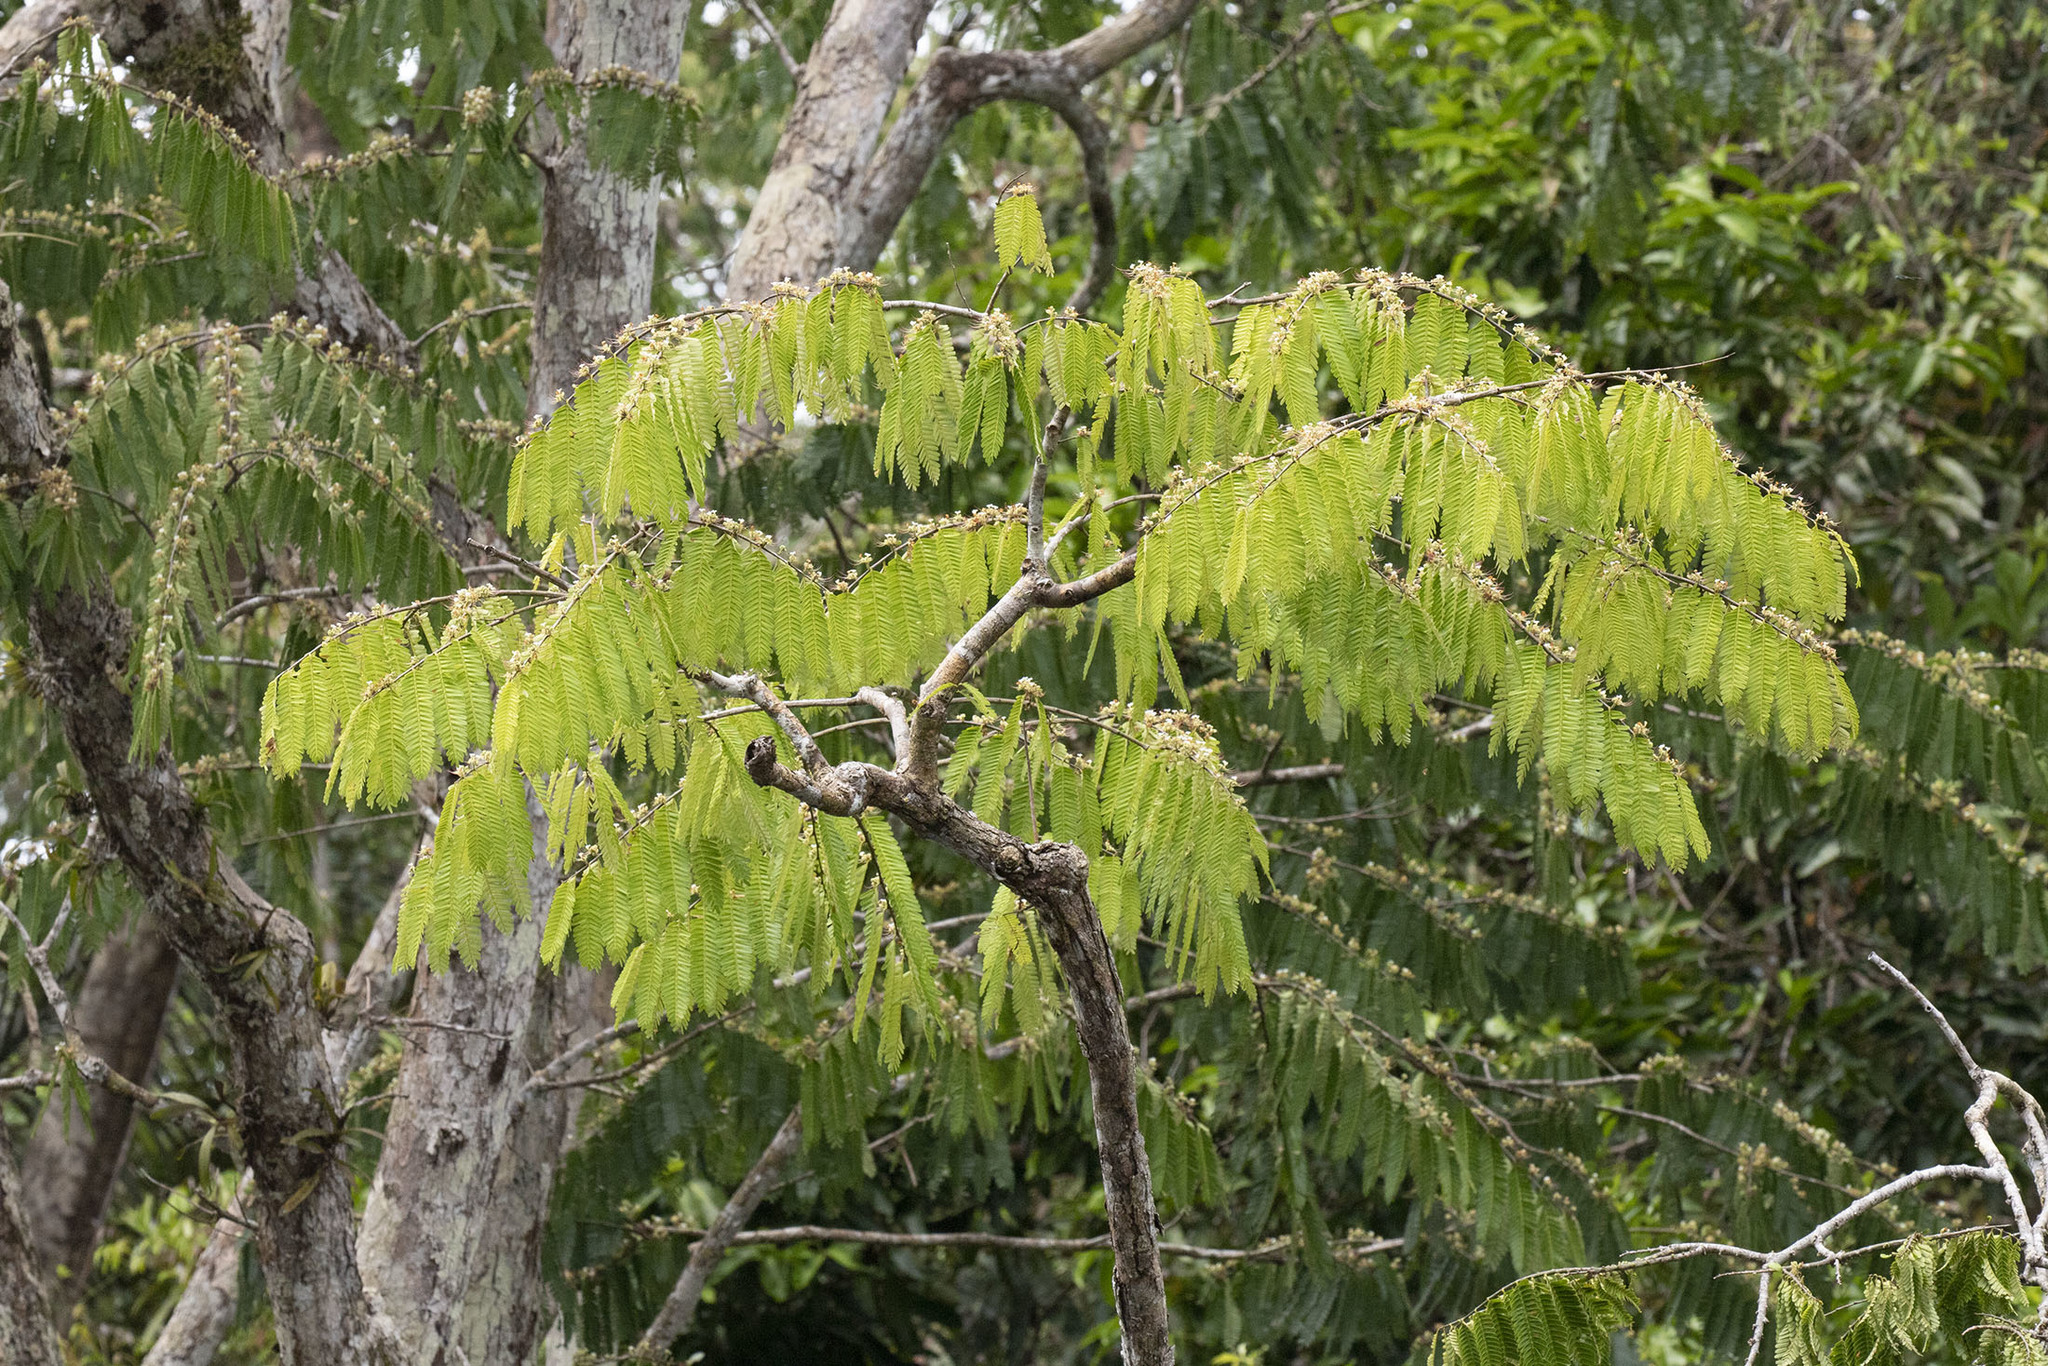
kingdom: Plantae
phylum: Tracheophyta
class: Magnoliopsida
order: Fabales
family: Fabaceae
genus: Macrolobium
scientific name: Macrolobium acaciifolium
